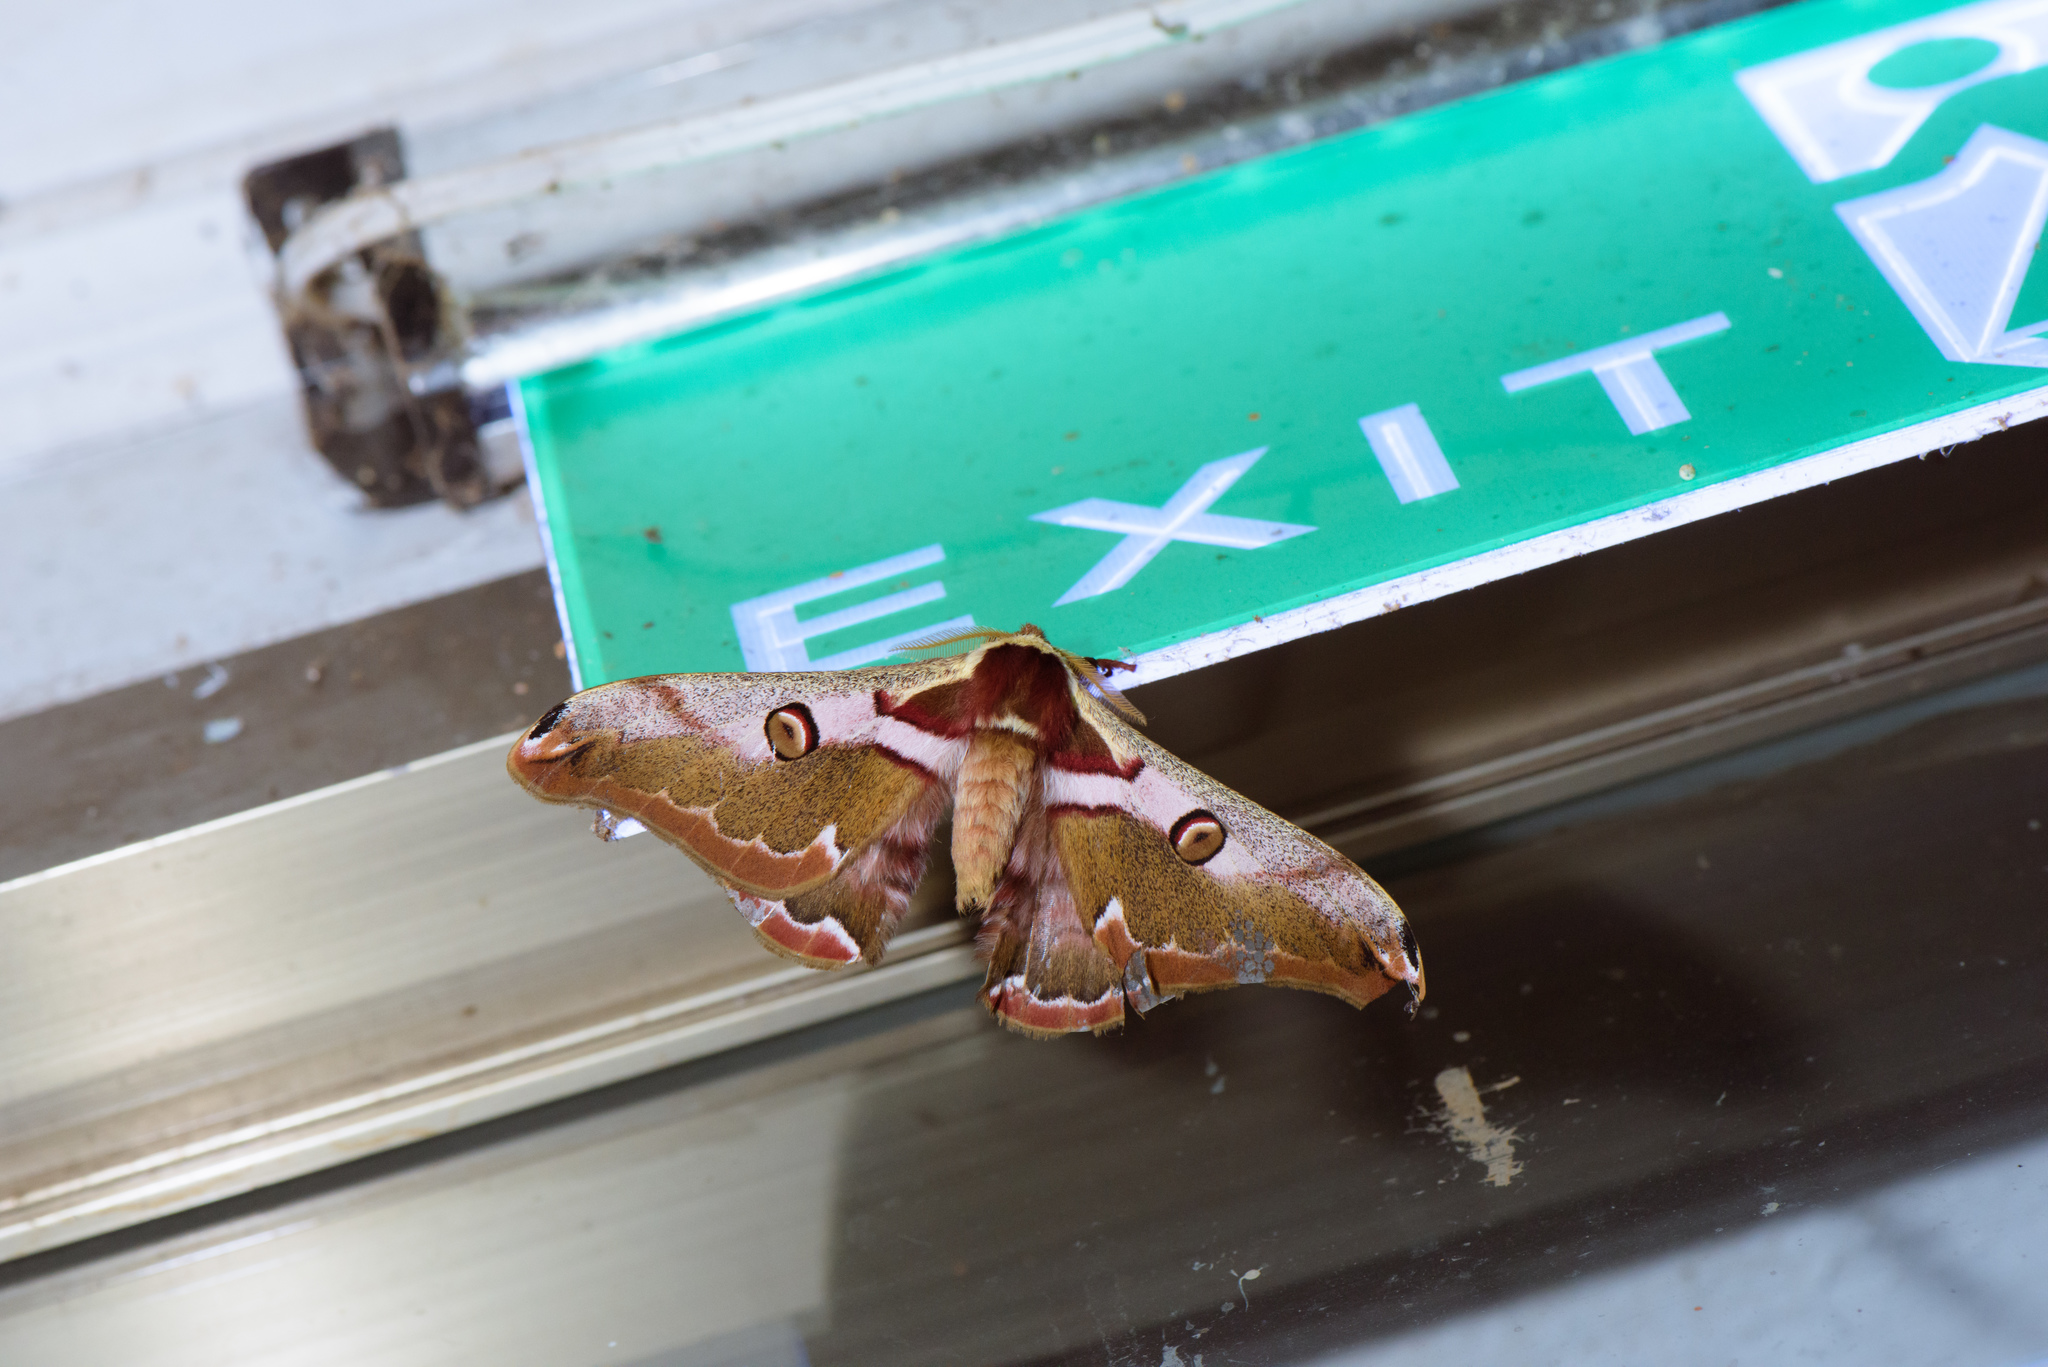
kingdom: Animalia
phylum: Arthropoda
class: Insecta
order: Lepidoptera
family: Saturniidae
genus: Rinaca
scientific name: Rinaca fukudai
